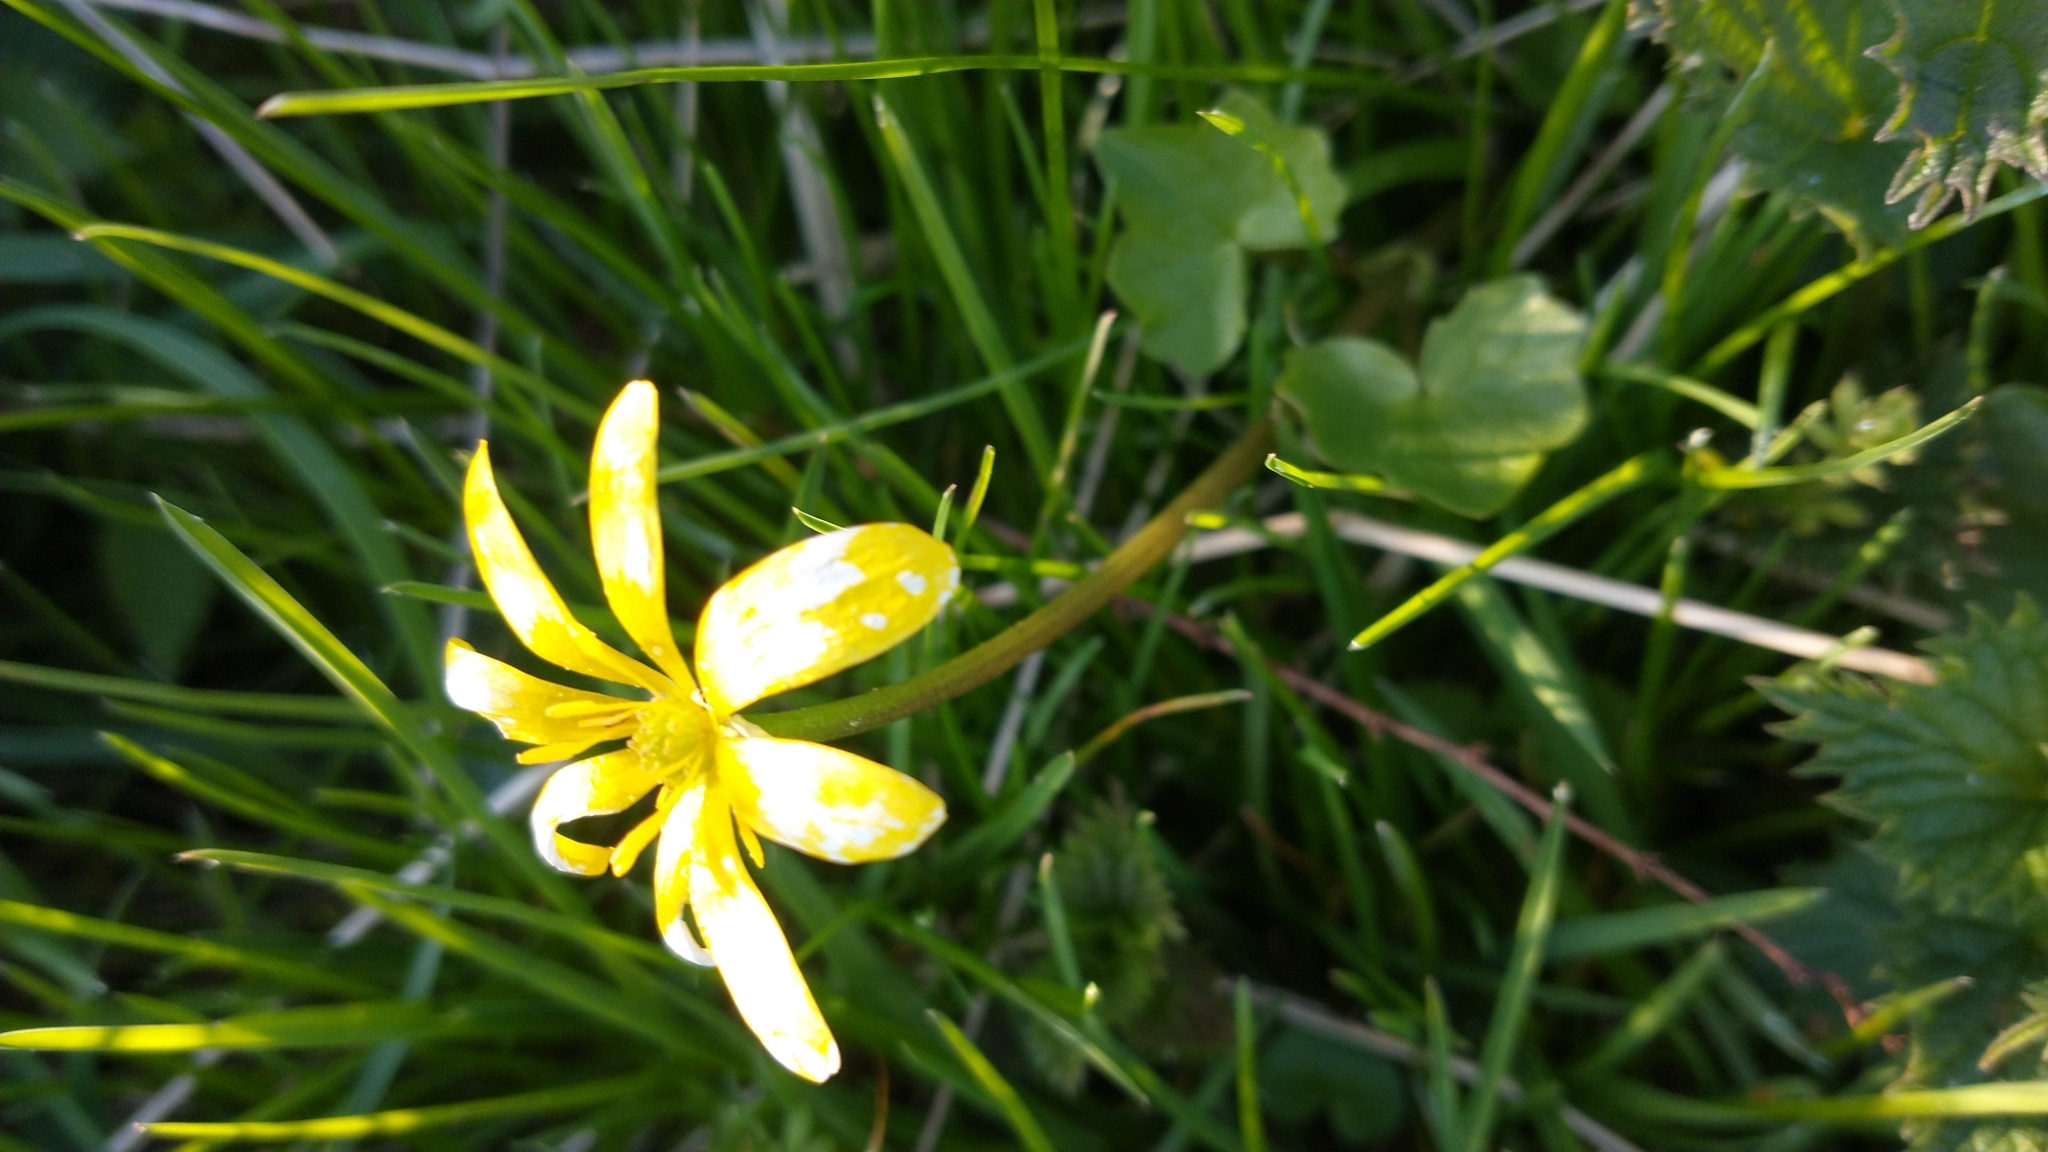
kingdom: Plantae
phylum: Tracheophyta
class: Magnoliopsida
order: Ranunculales
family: Ranunculaceae
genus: Ficaria
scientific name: Ficaria verna
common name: Lesser celandine
